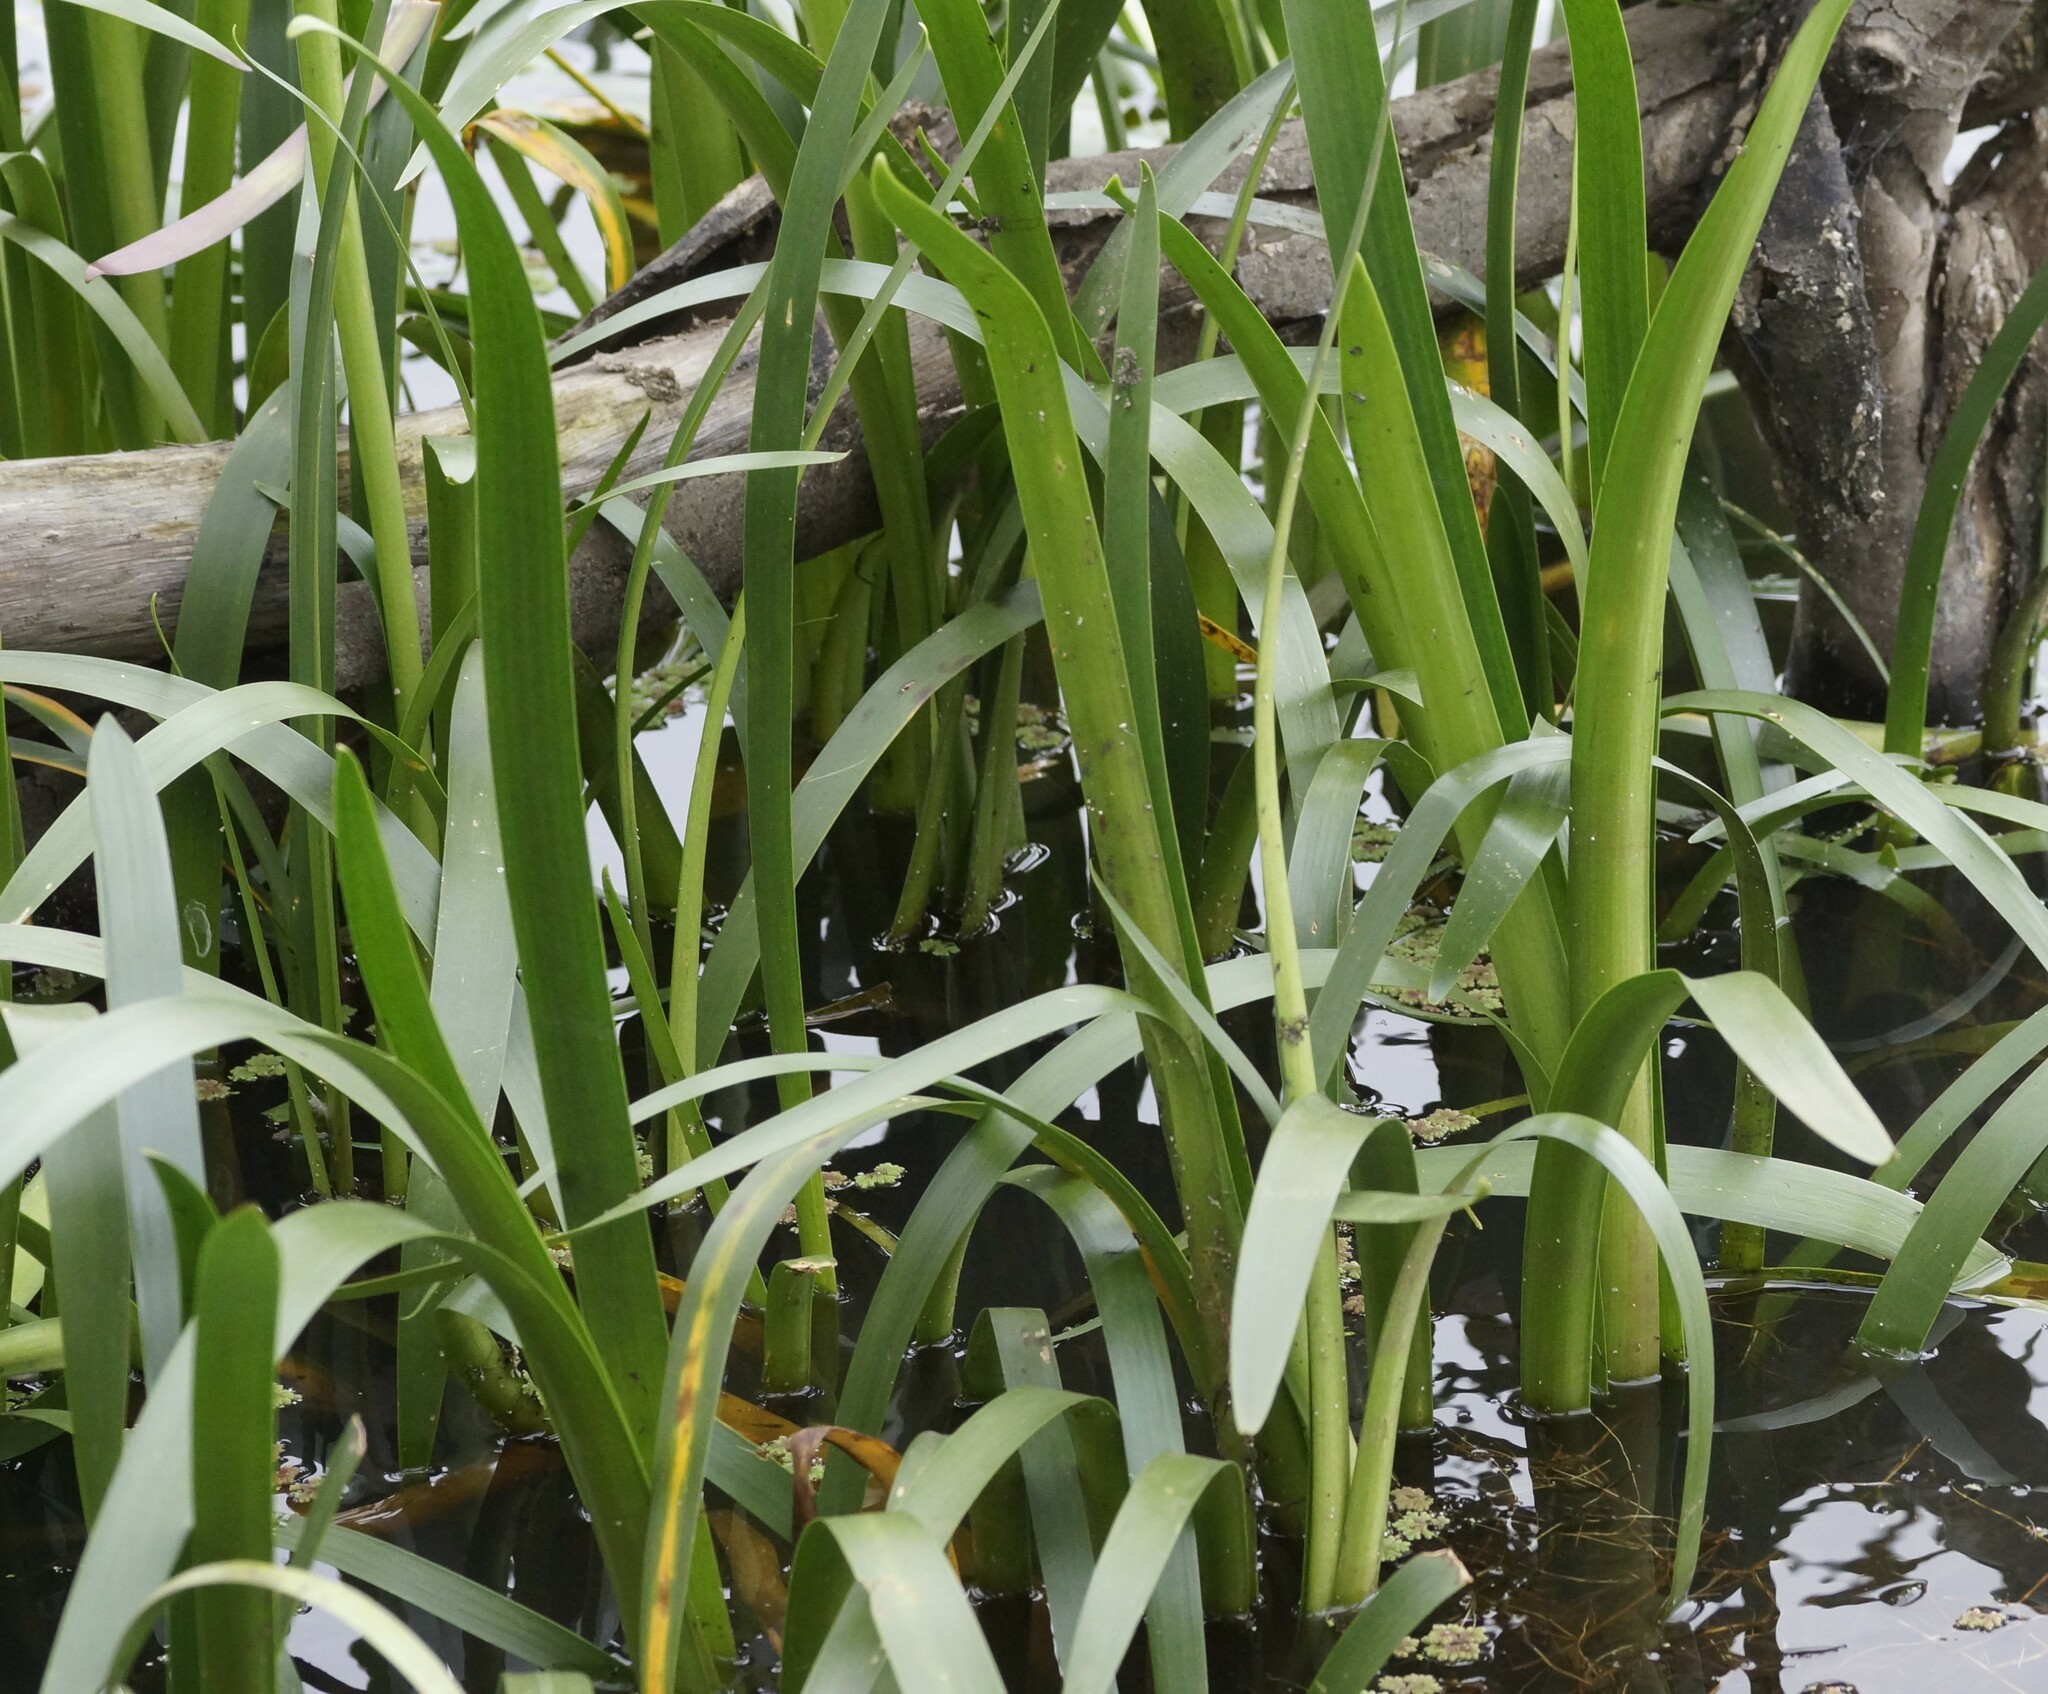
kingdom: Plantae
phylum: Tracheophyta
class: Liliopsida
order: Alismatales
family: Juncaginaceae
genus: Cycnogeton
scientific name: Cycnogeton procerum
